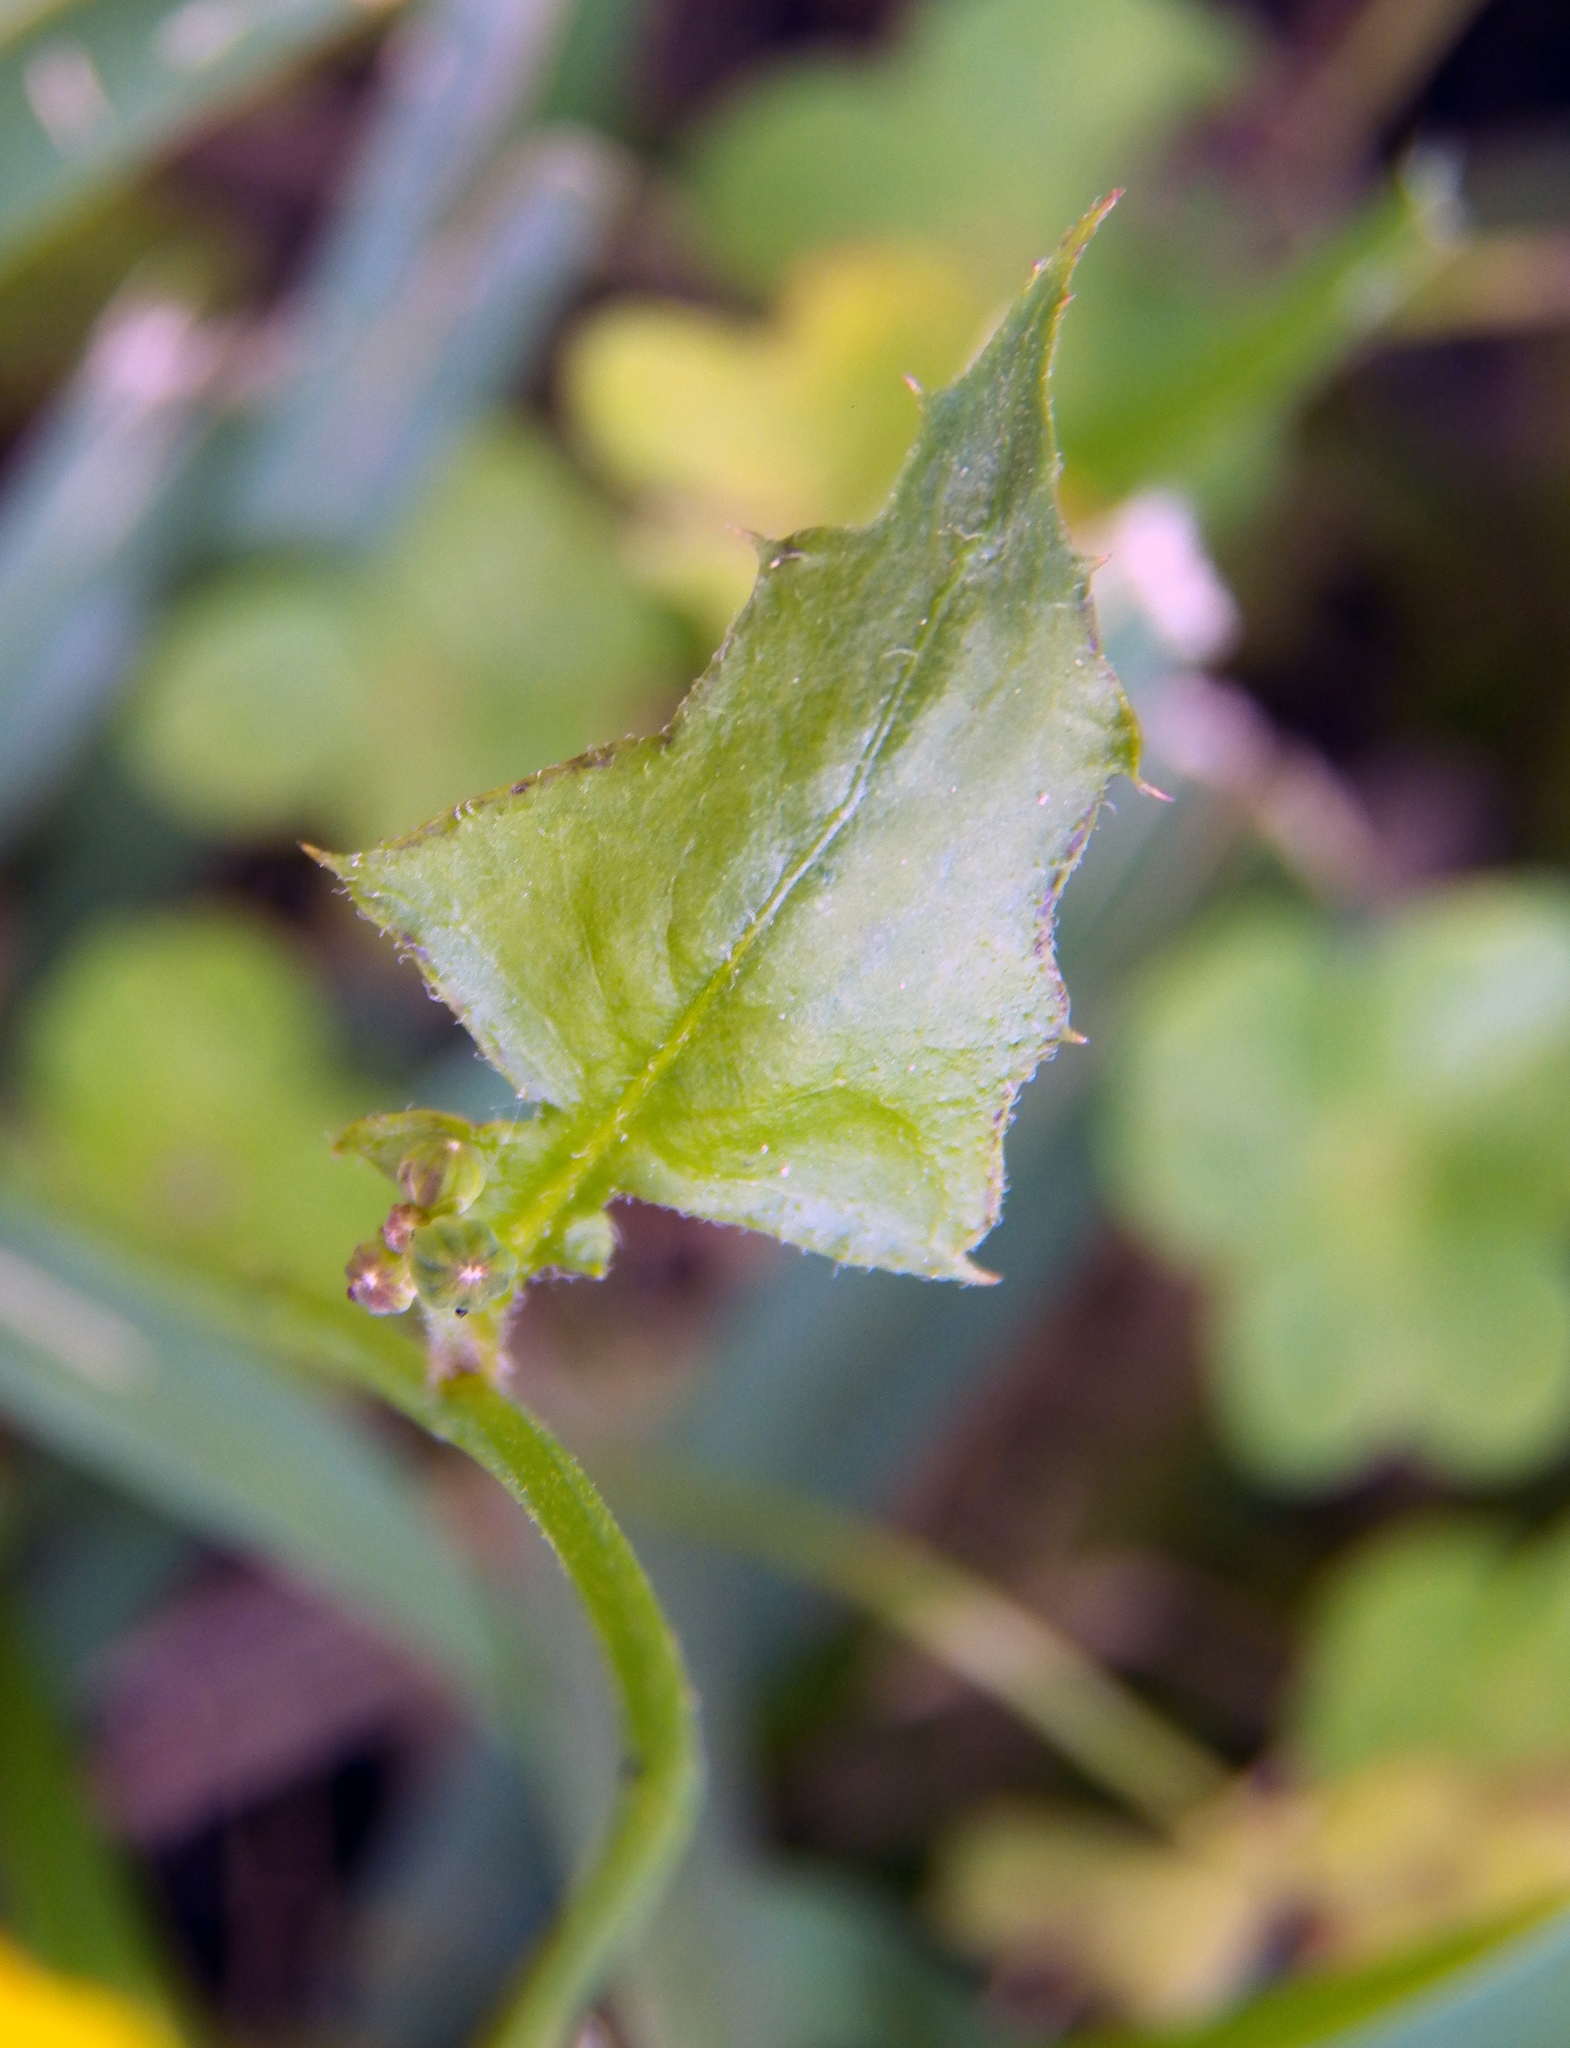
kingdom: Plantae
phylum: Tracheophyta
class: Magnoliopsida
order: Asterales
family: Asteraceae
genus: Youngia
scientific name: Youngia japonica
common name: Oriental false hawksbeard
